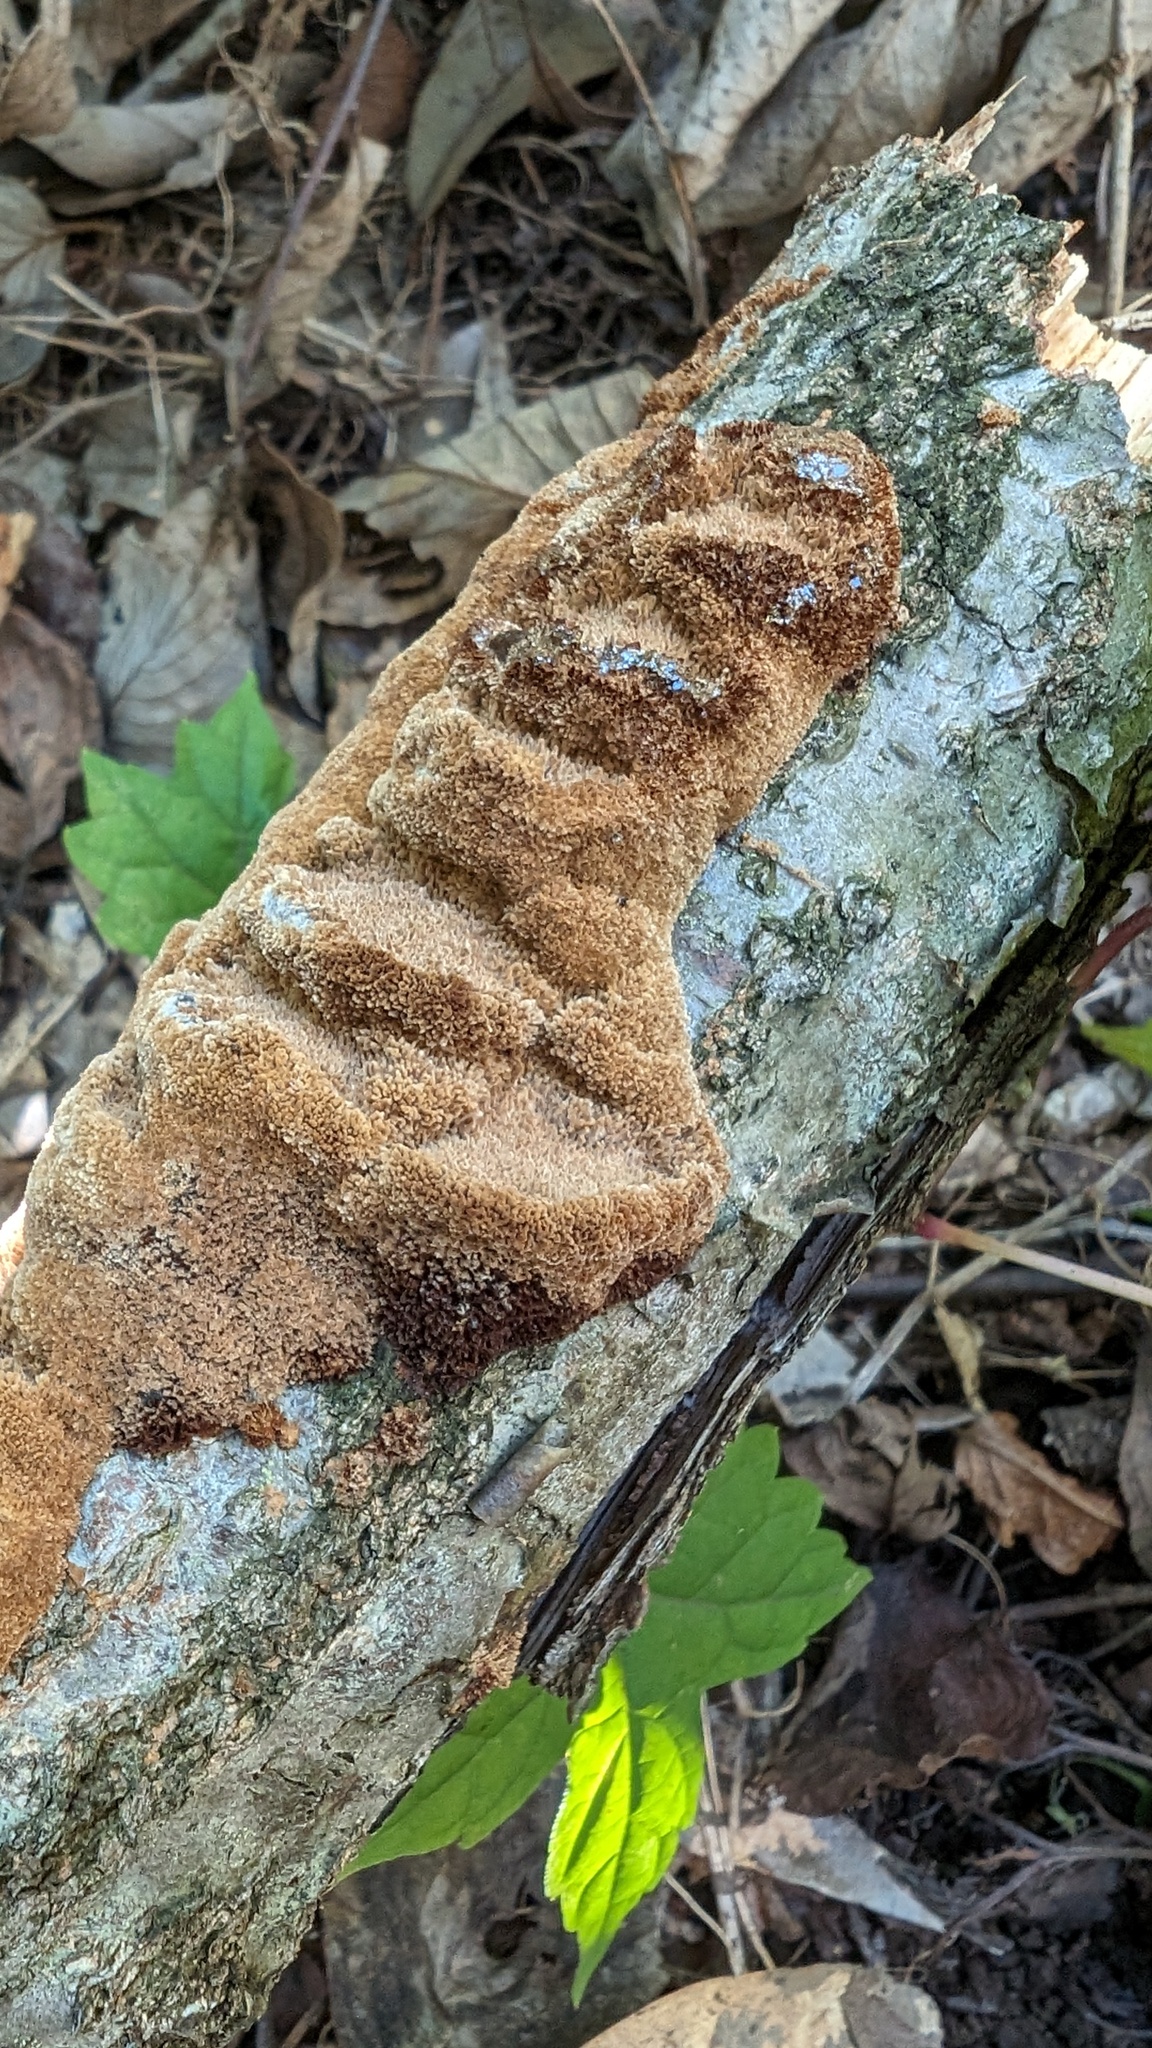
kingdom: Fungi
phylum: Basidiomycota
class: Agaricomycetes
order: Hymenochaetales
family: Hymenochaetaceae
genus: Fuscoporia
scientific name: Fuscoporia setifera
